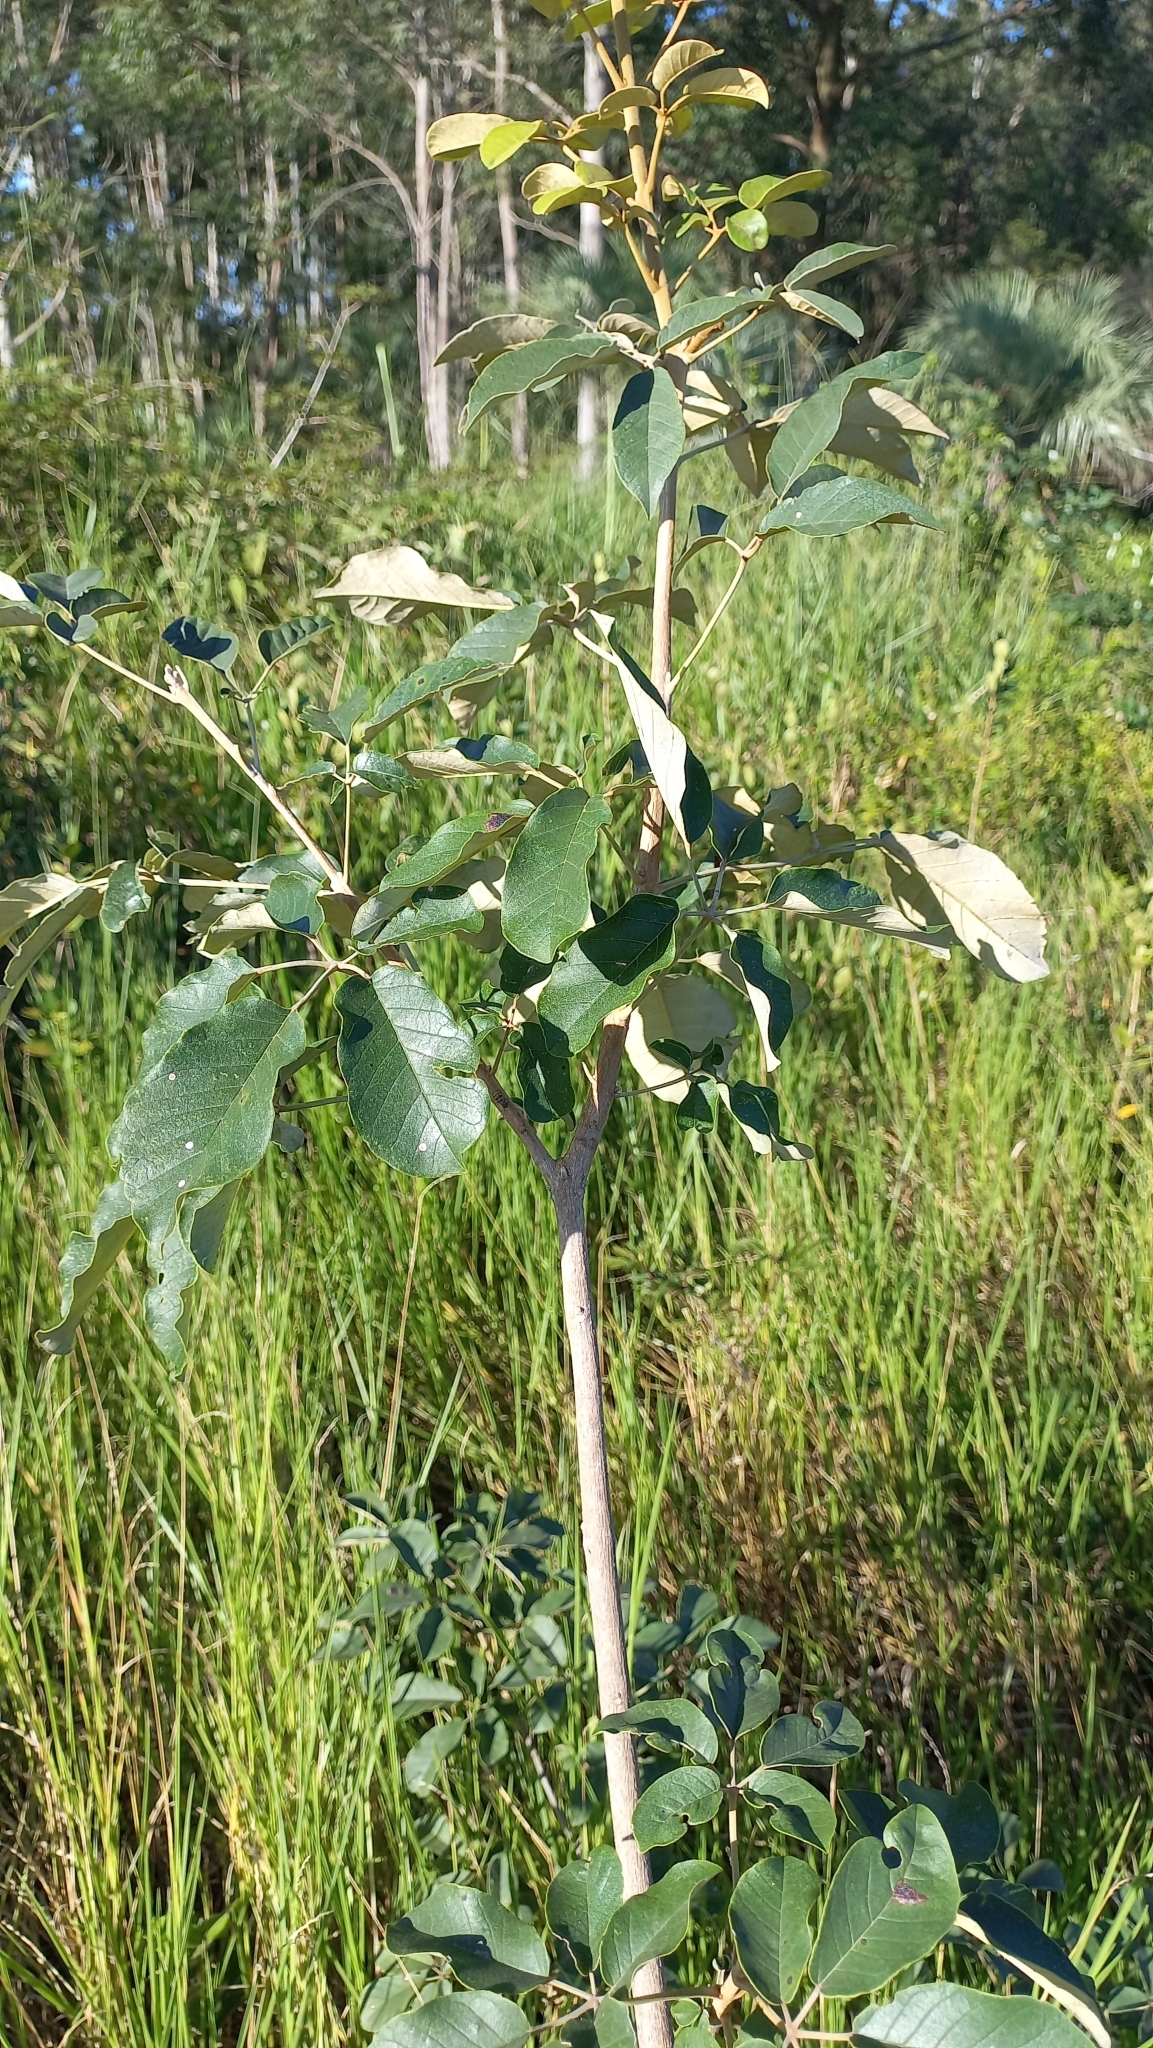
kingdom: Plantae
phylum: Tracheophyta
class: Magnoliopsida
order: Lamiales
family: Bignoniaceae
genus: Handroanthus
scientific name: Handroanthus pulcherrimus
